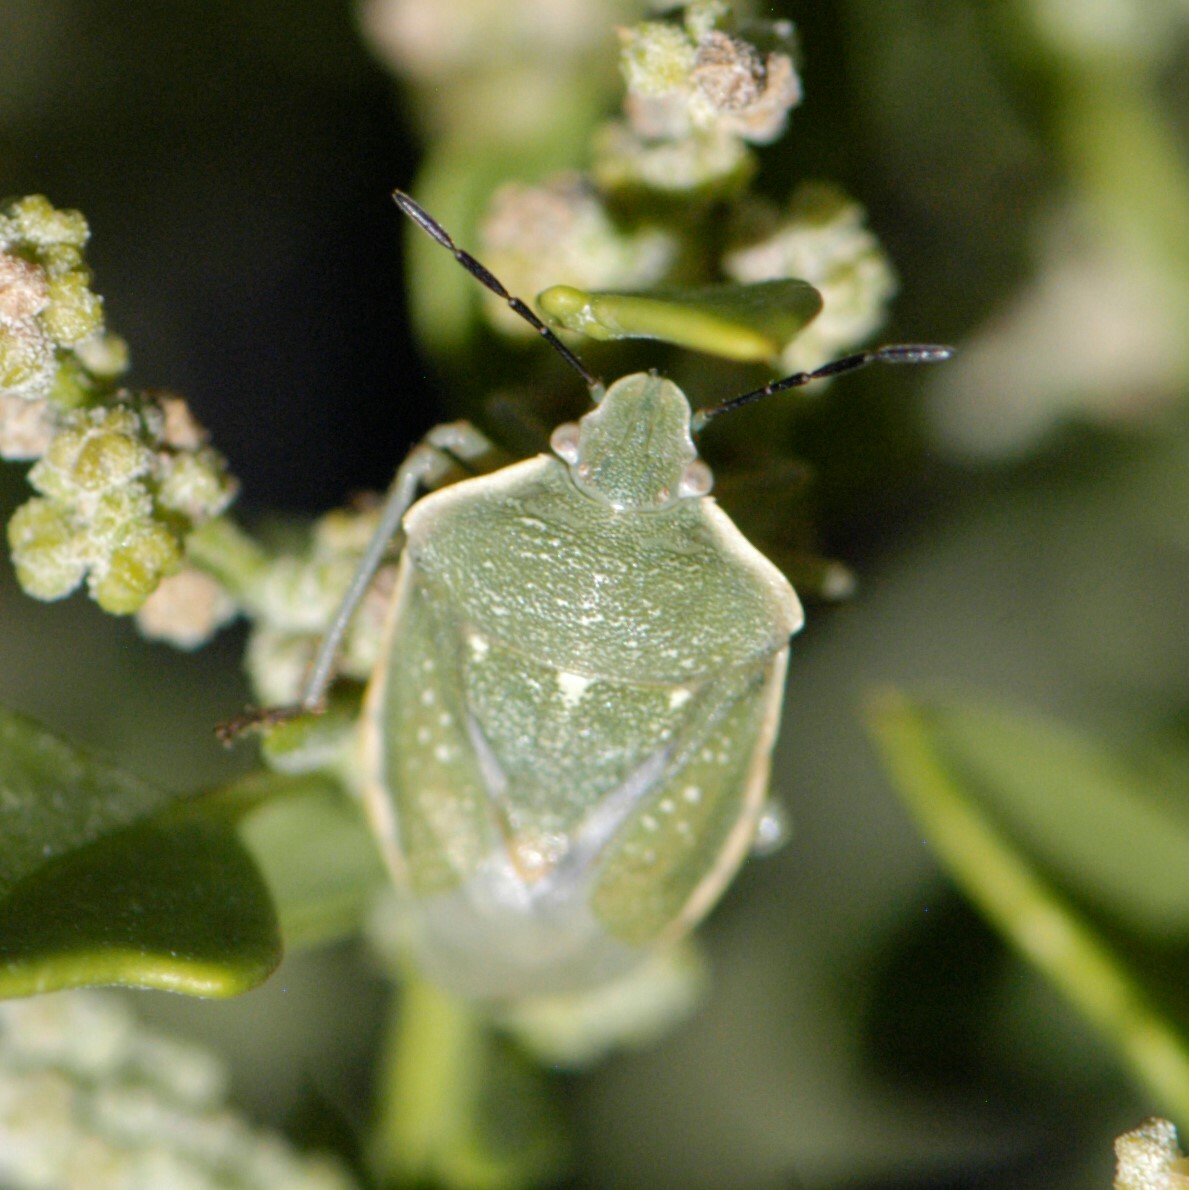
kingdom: Animalia
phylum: Arthropoda
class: Insecta
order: Hemiptera
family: Pentatomidae
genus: Chlorochroa
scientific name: Chlorochroa uhleri
